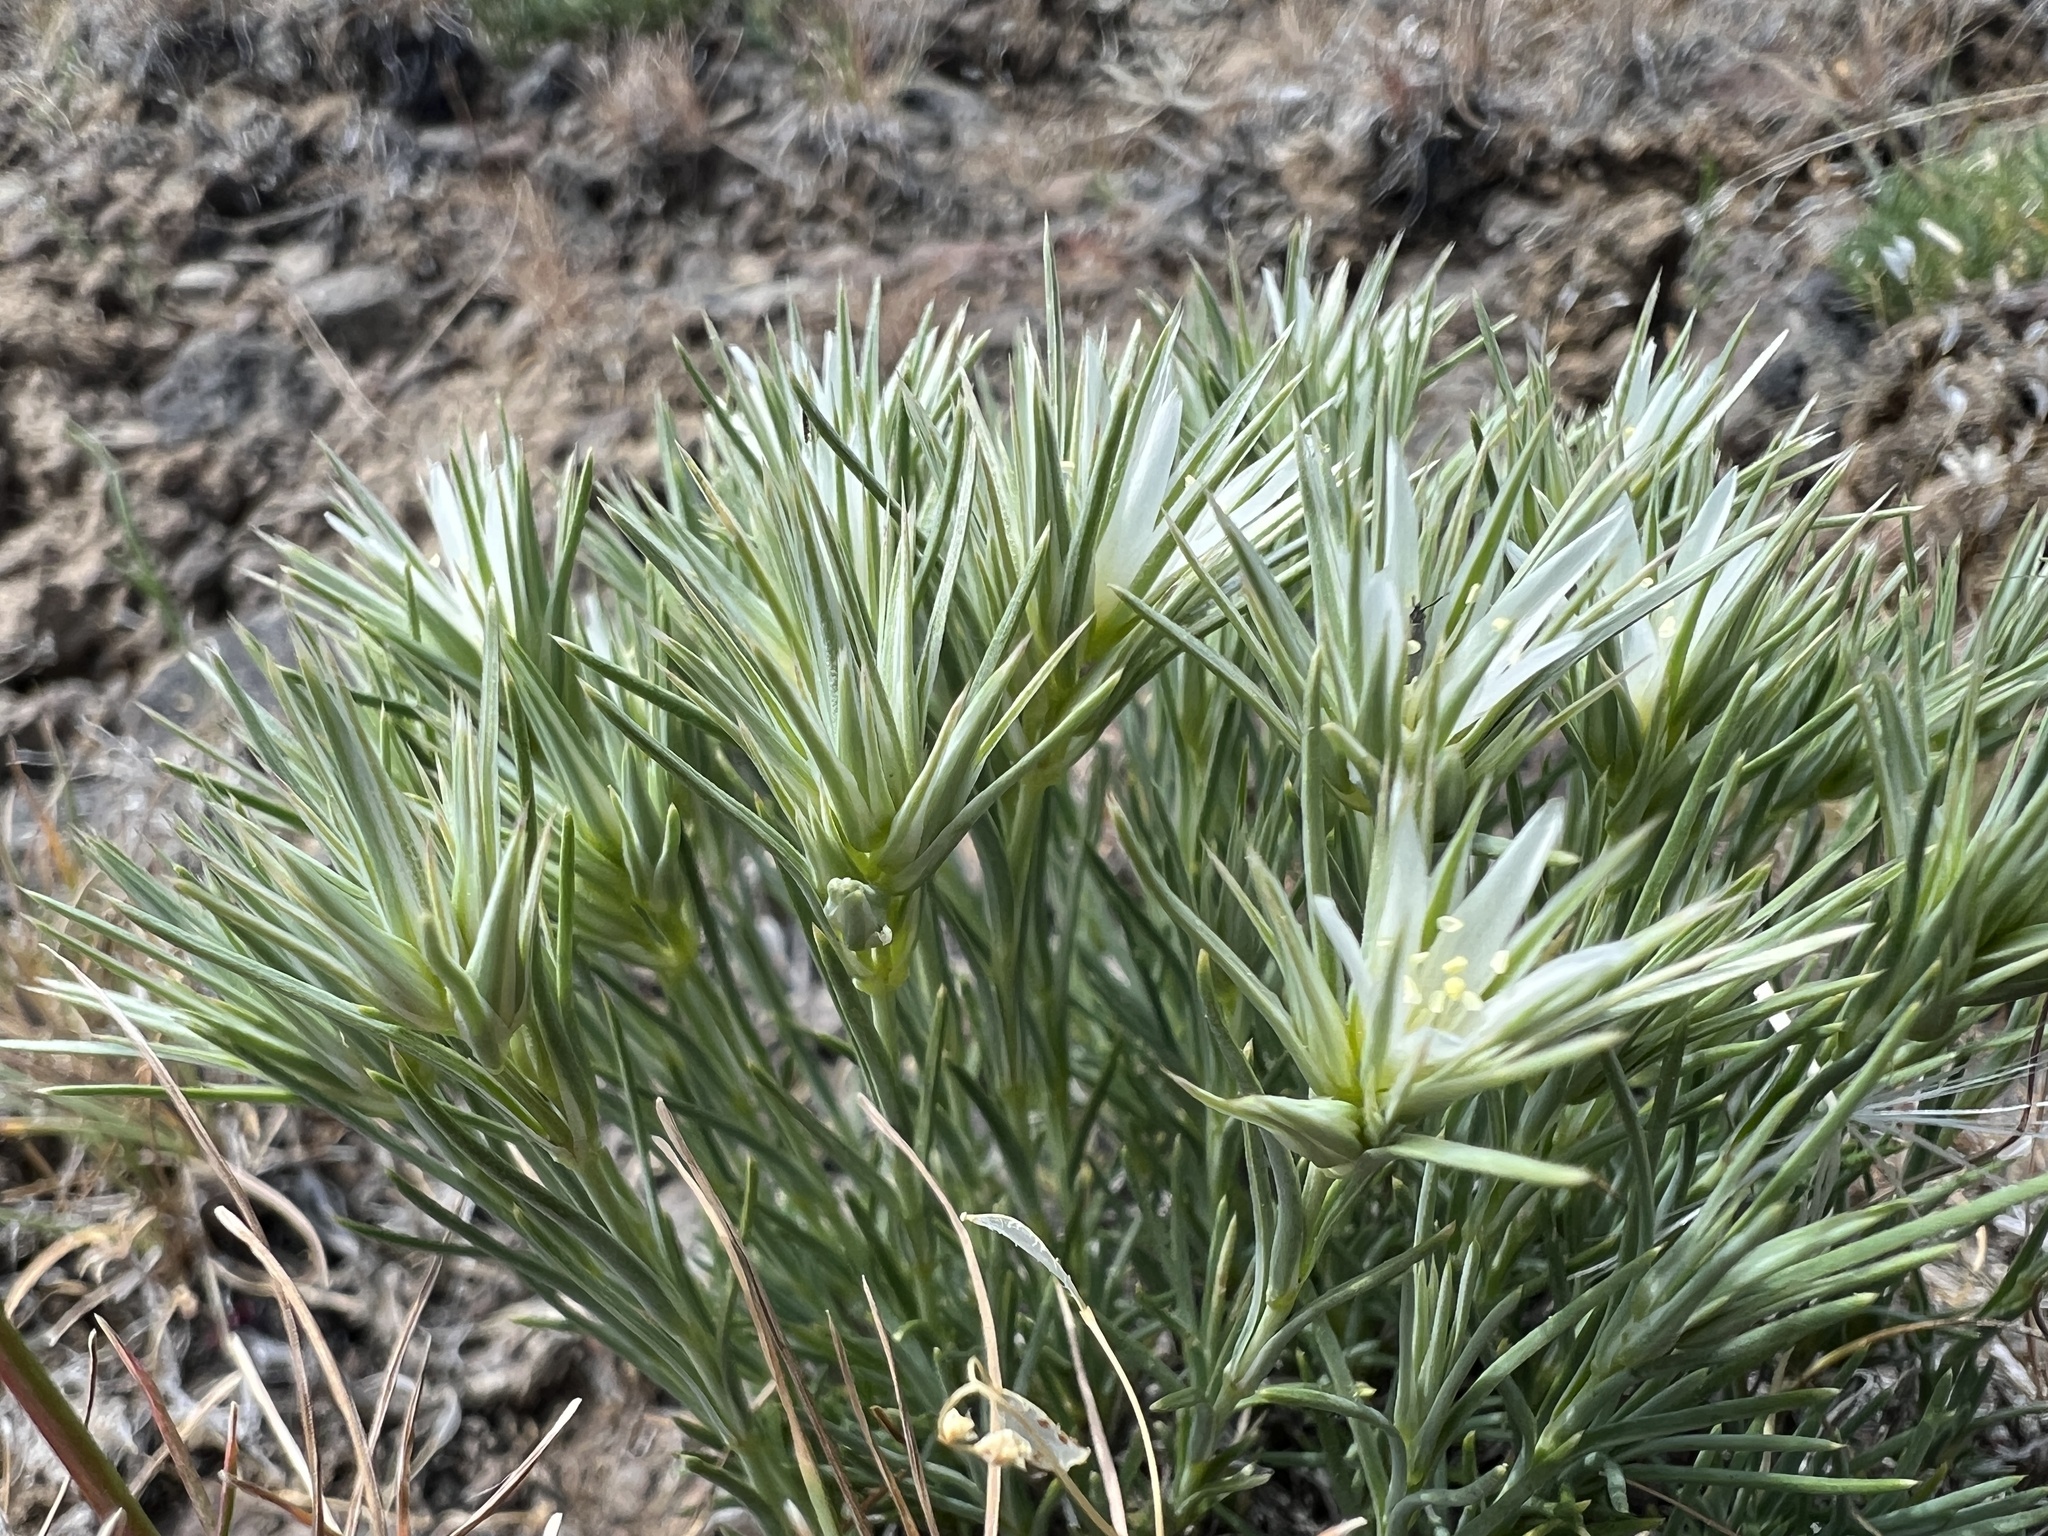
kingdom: Plantae
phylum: Tracheophyta
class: Magnoliopsida
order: Caryophyllales
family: Caryophyllaceae
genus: Eremogone
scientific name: Eremogone franklinii
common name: Franklin's sandwort
